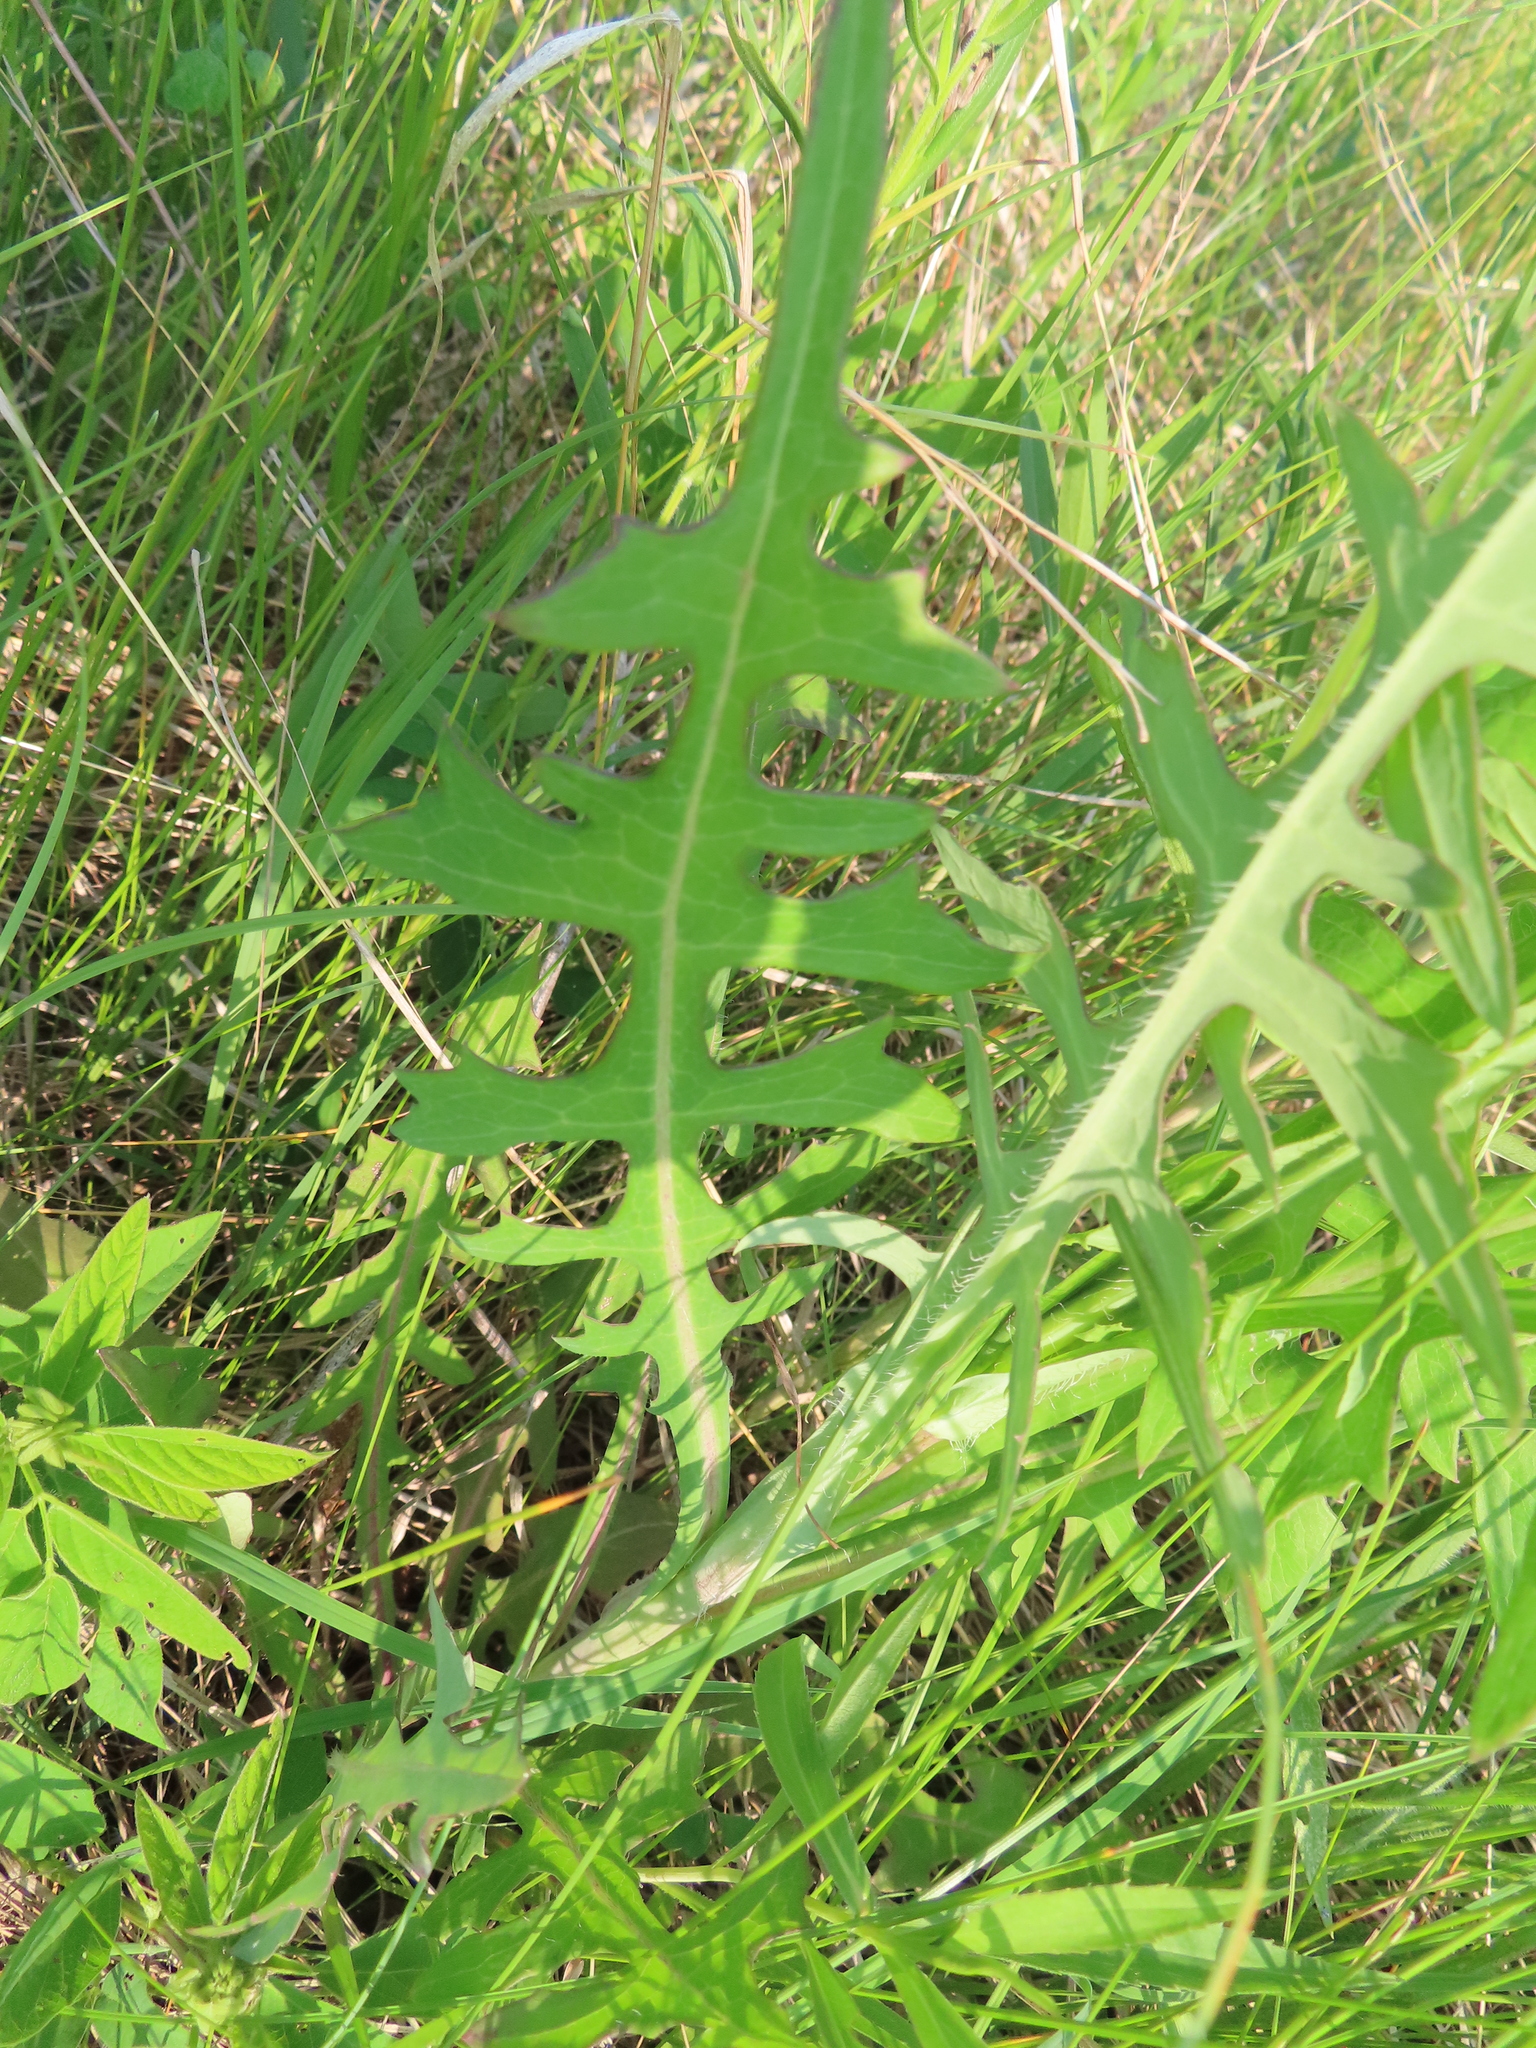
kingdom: Plantae
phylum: Tracheophyta
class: Magnoliopsida
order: Asterales
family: Asteraceae
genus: Lactuca
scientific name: Lactuca canadensis
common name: Canada lettuce
